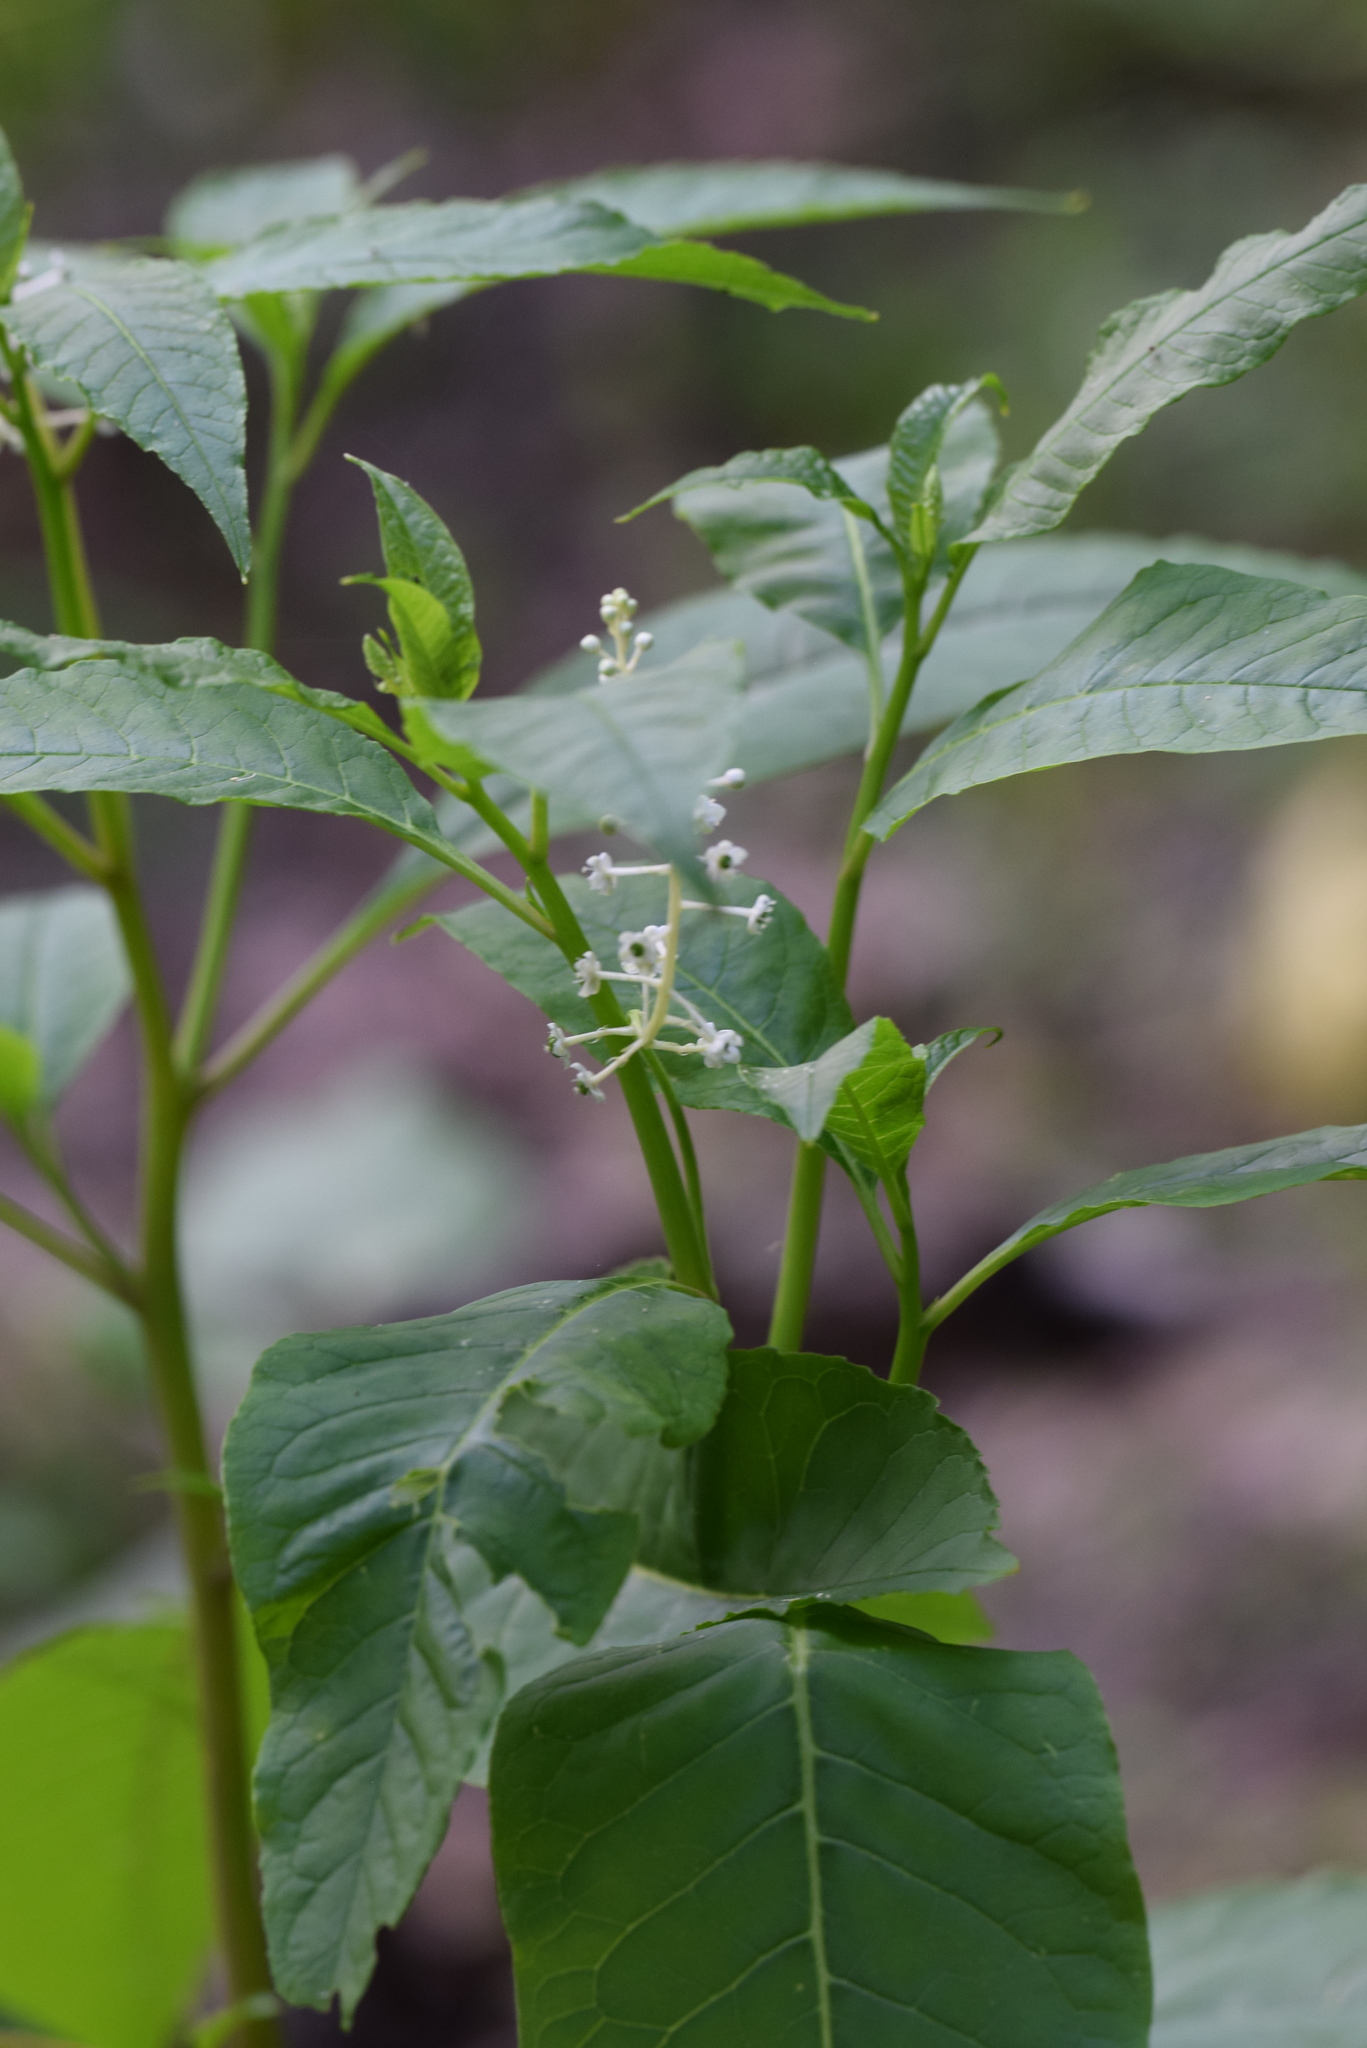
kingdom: Plantae
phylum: Tracheophyta
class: Magnoliopsida
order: Caryophyllales
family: Phytolaccaceae
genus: Phytolacca
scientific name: Phytolacca americana
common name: American pokeweed
